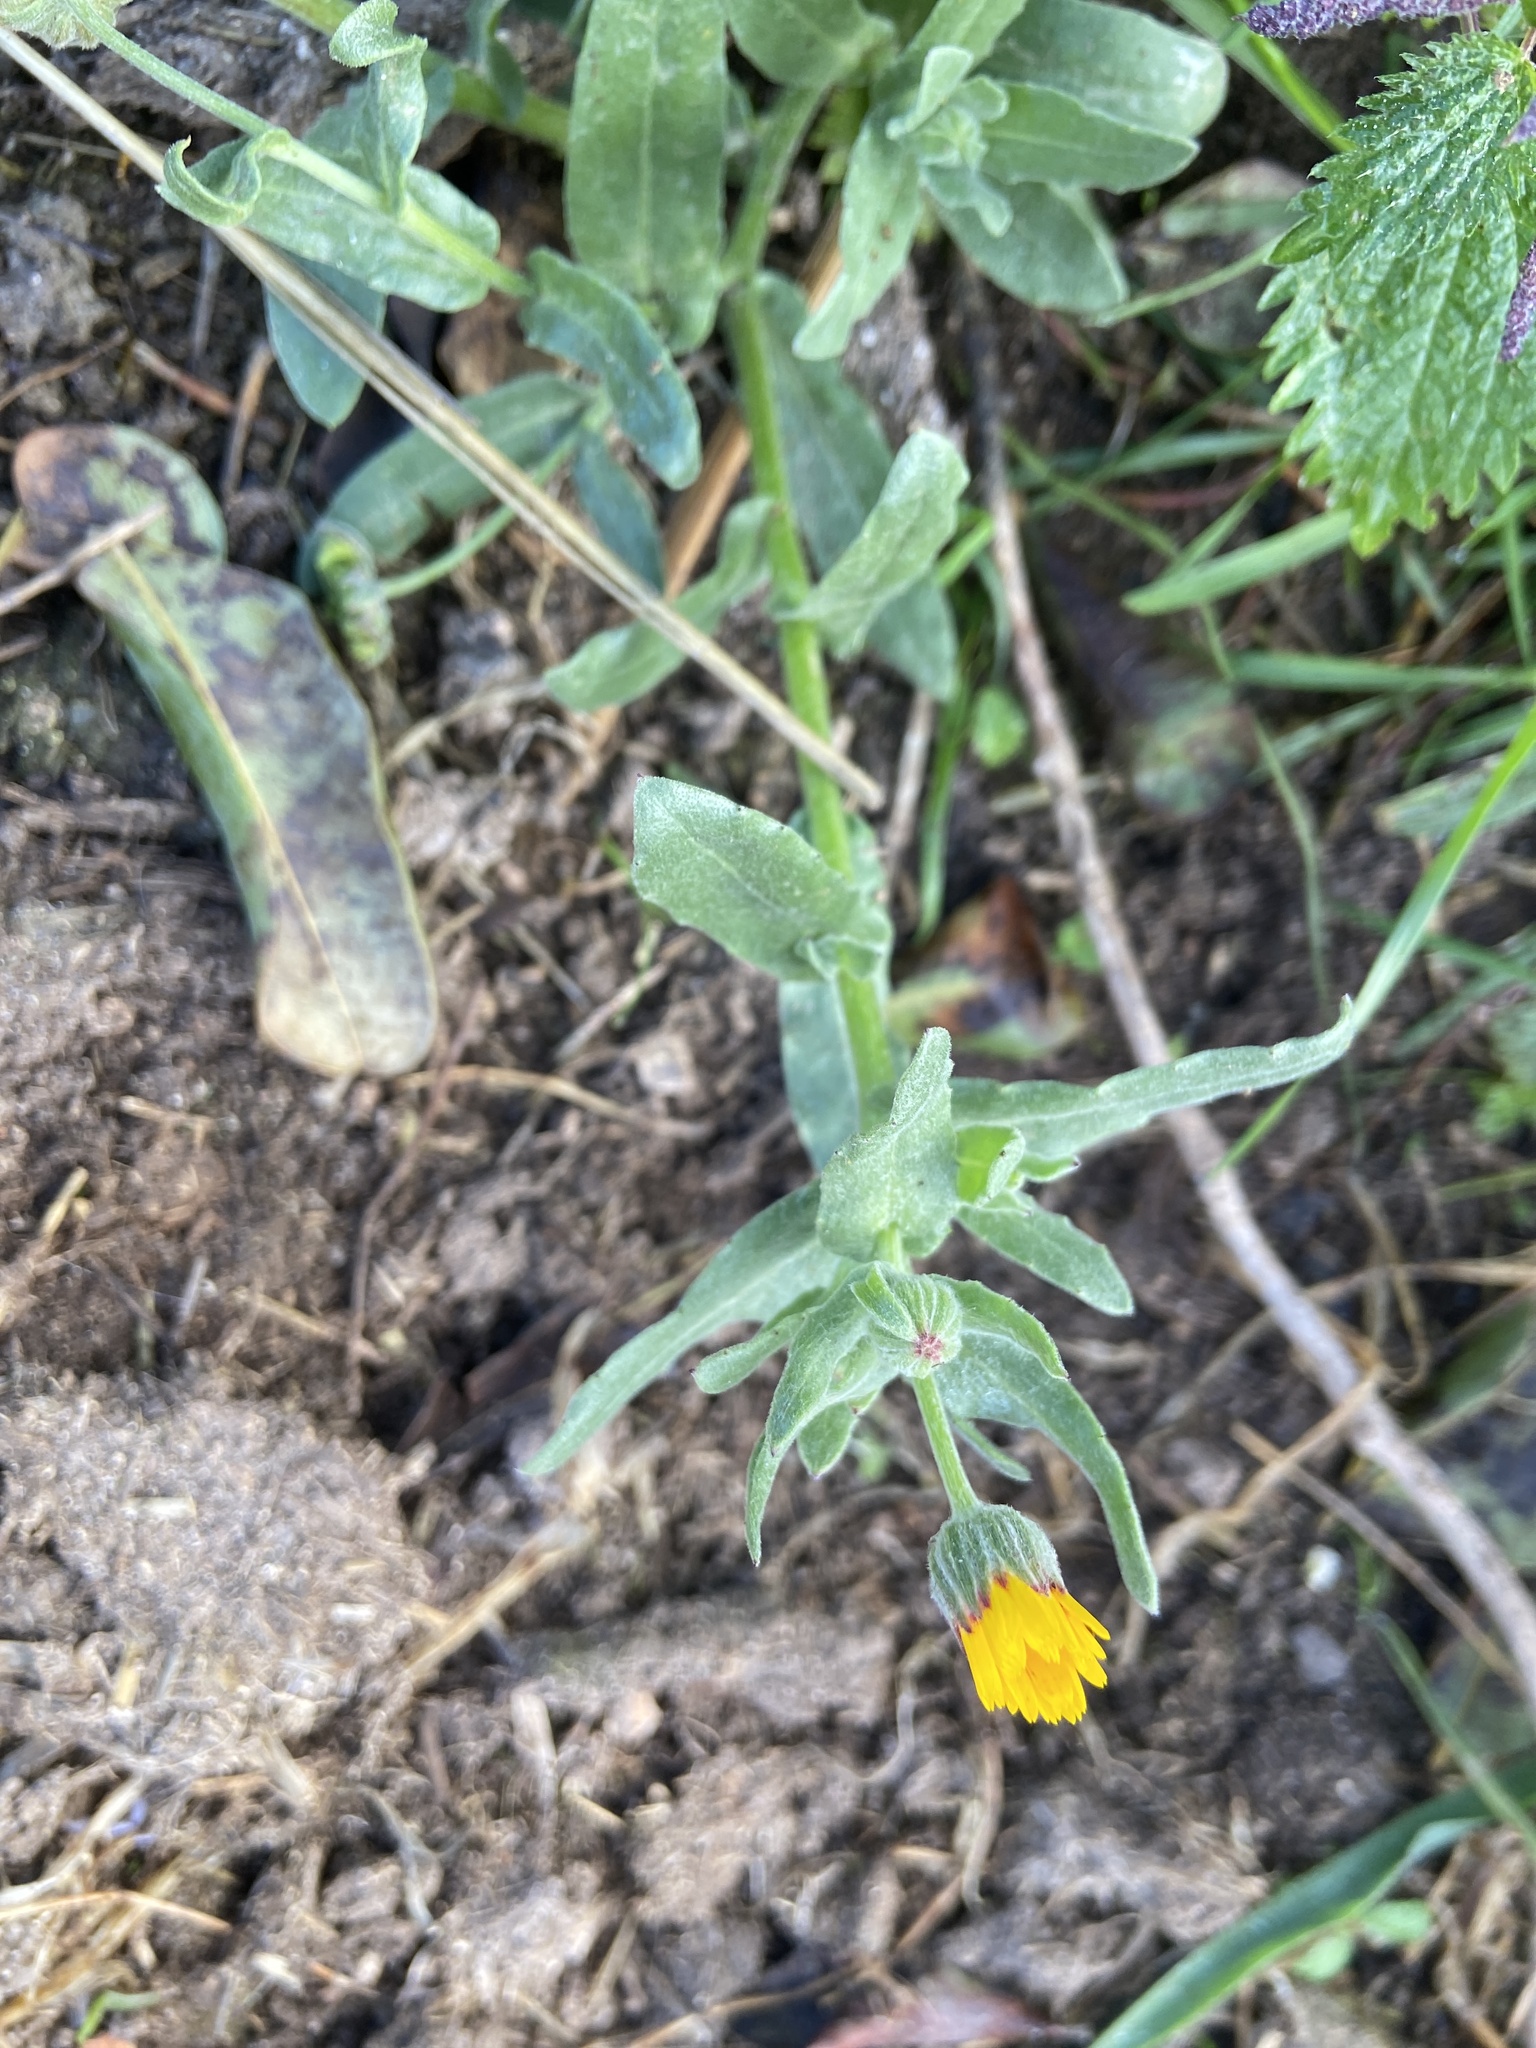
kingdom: Plantae
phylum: Tracheophyta
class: Magnoliopsida
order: Asterales
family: Asteraceae
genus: Calendula
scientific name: Calendula arvensis
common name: Field marigold
